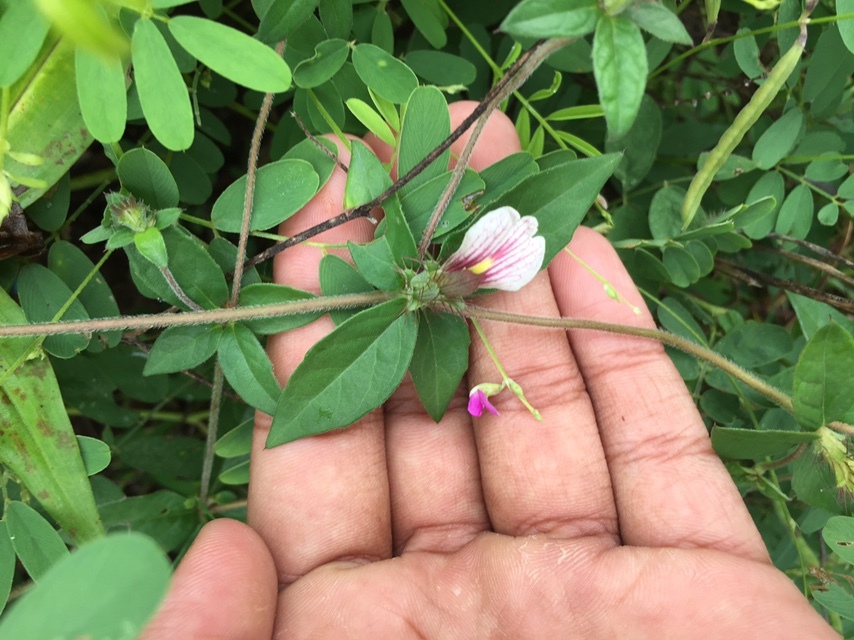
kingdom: Plantae
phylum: Tracheophyta
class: Magnoliopsida
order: Lamiales
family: Acanthaceae
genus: Blepharis
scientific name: Blepharis maderaspatensis
